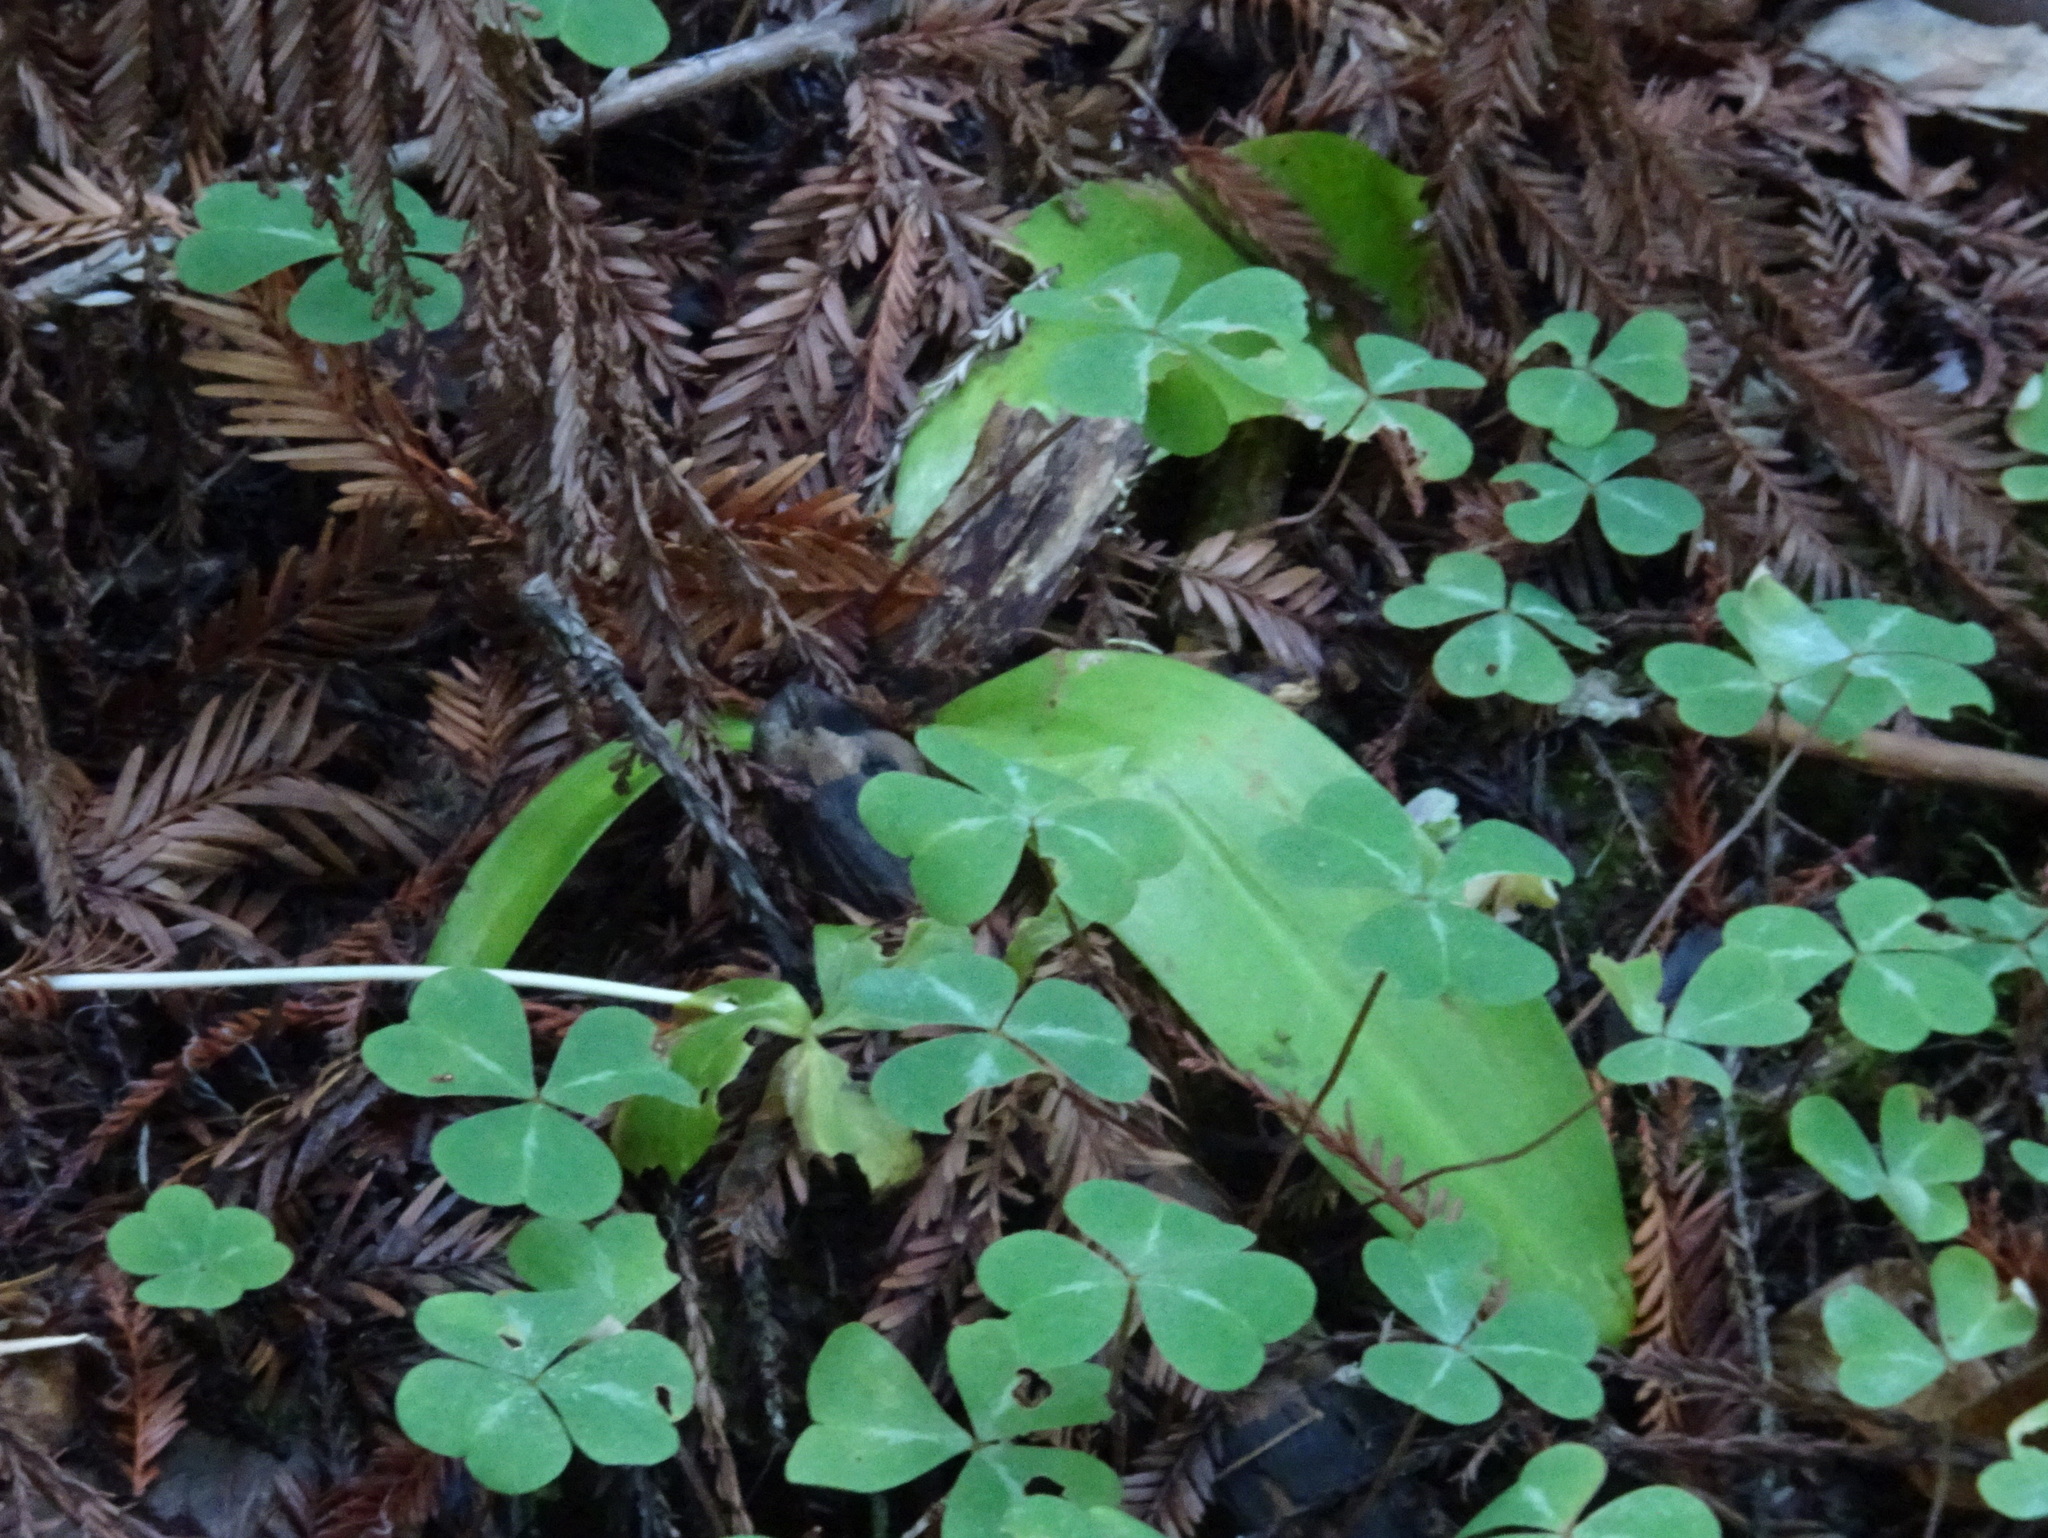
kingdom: Plantae
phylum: Tracheophyta
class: Liliopsida
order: Liliales
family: Liliaceae
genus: Clintonia
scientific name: Clintonia andrewsiana
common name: Red clintonia
